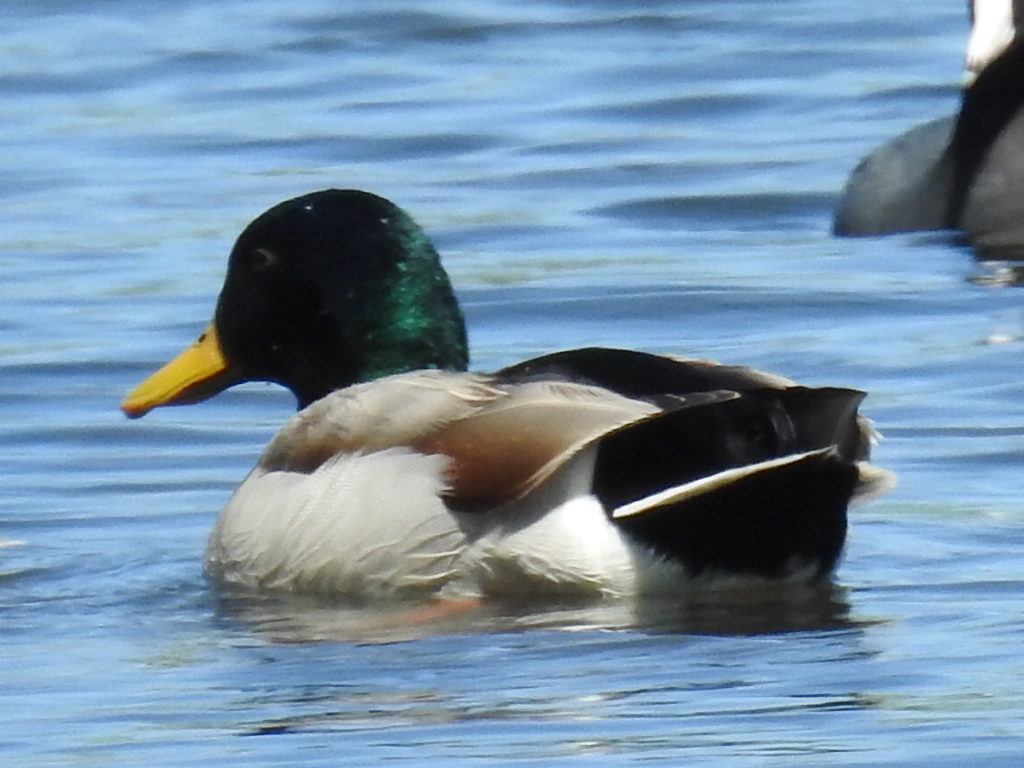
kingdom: Animalia
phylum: Chordata
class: Aves
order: Anseriformes
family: Anatidae
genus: Anas
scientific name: Anas platyrhynchos
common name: Mallard
